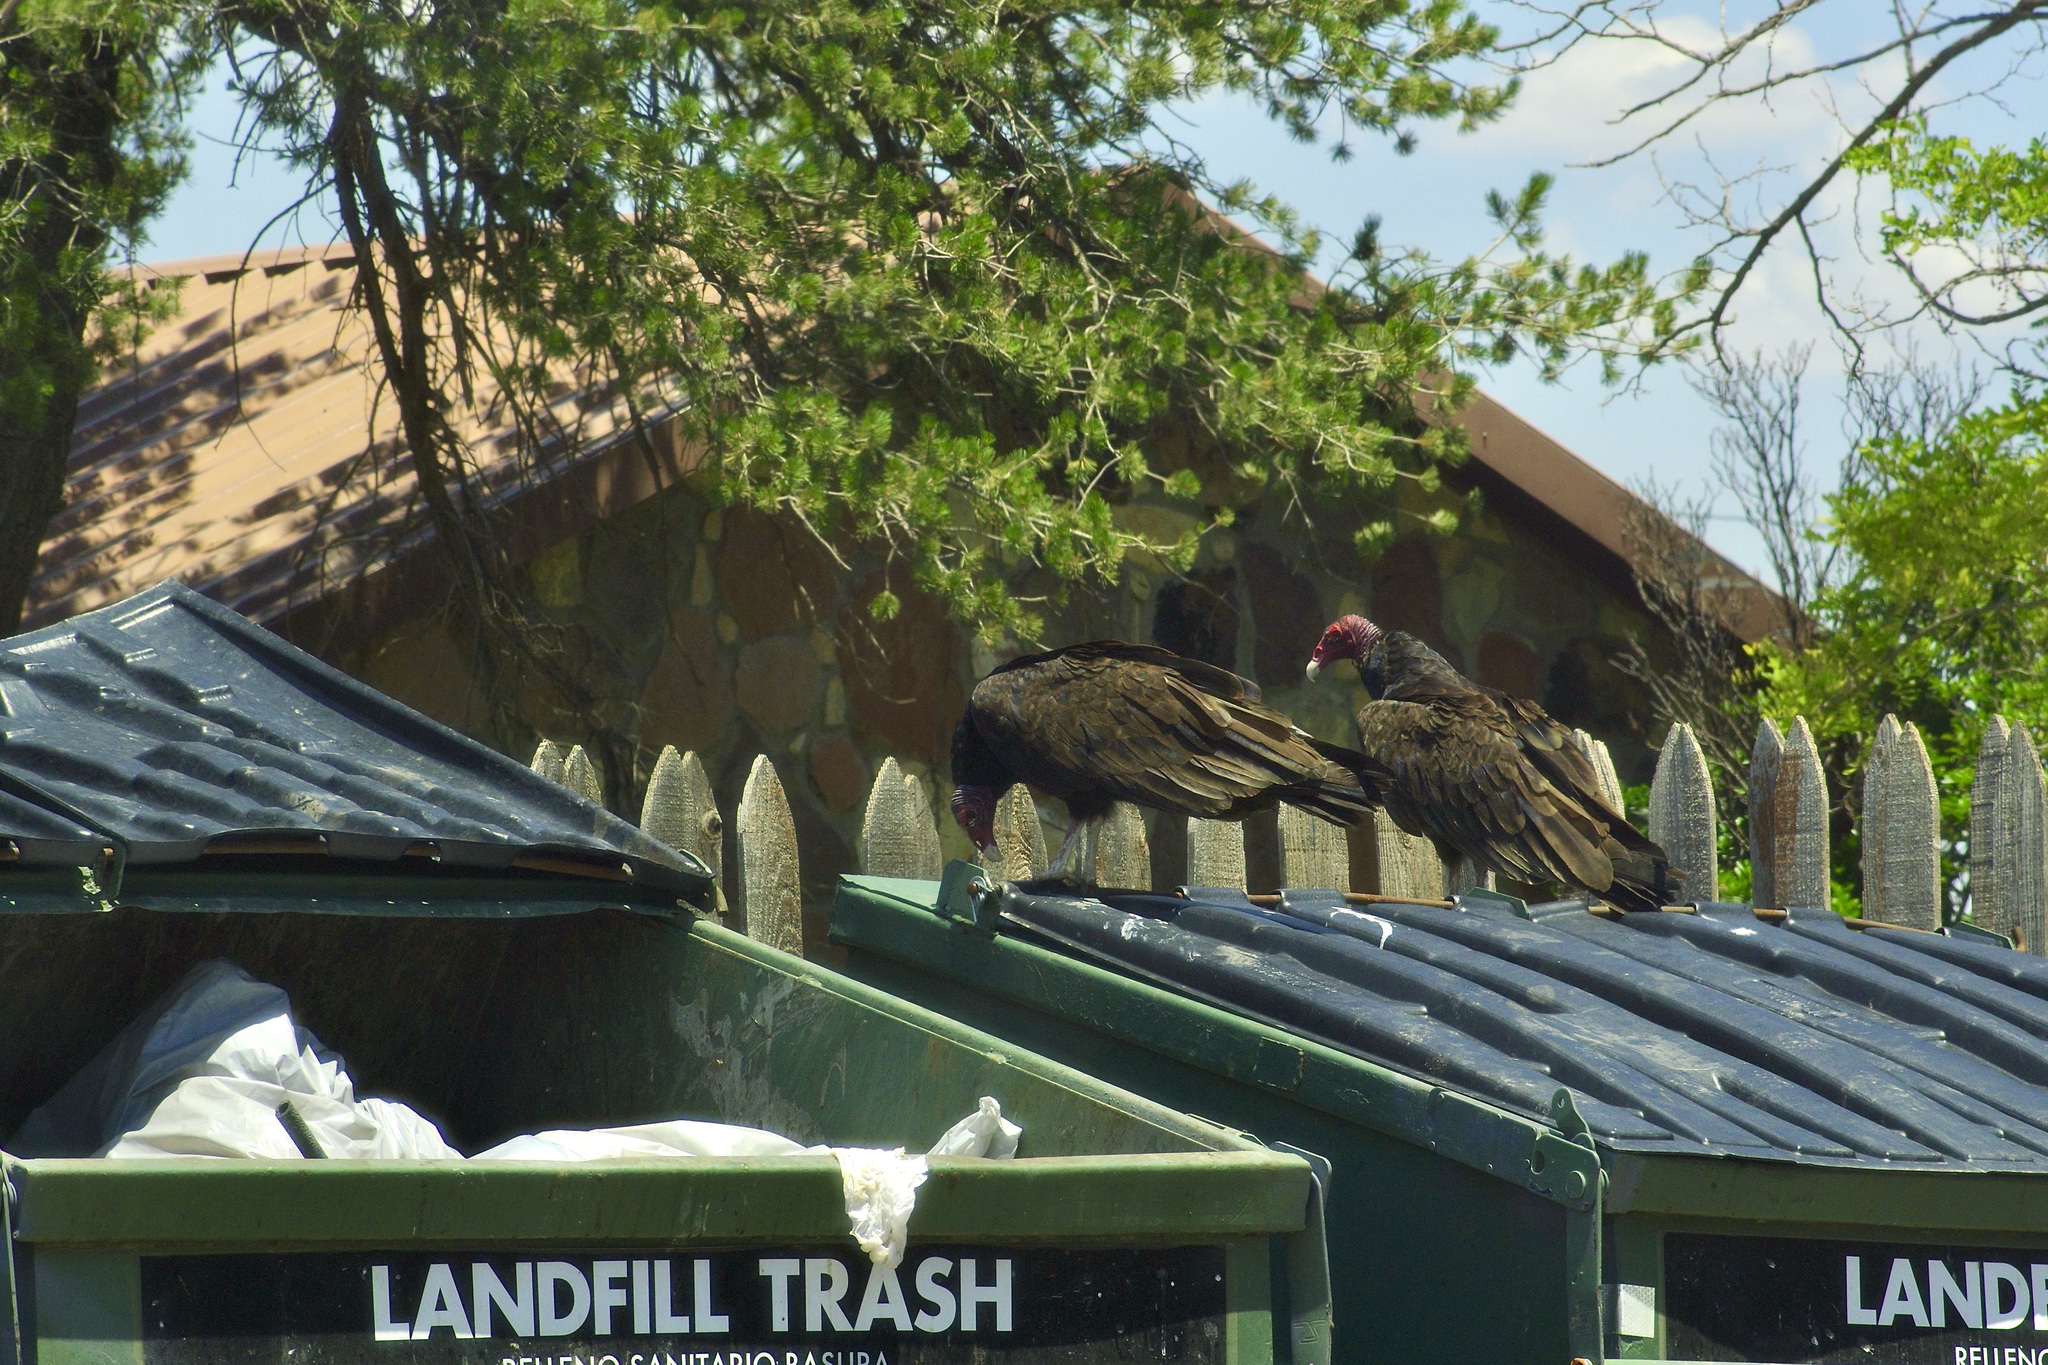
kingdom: Animalia
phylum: Chordata
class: Aves
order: Accipitriformes
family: Cathartidae
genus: Cathartes
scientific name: Cathartes aura
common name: Turkey vulture
